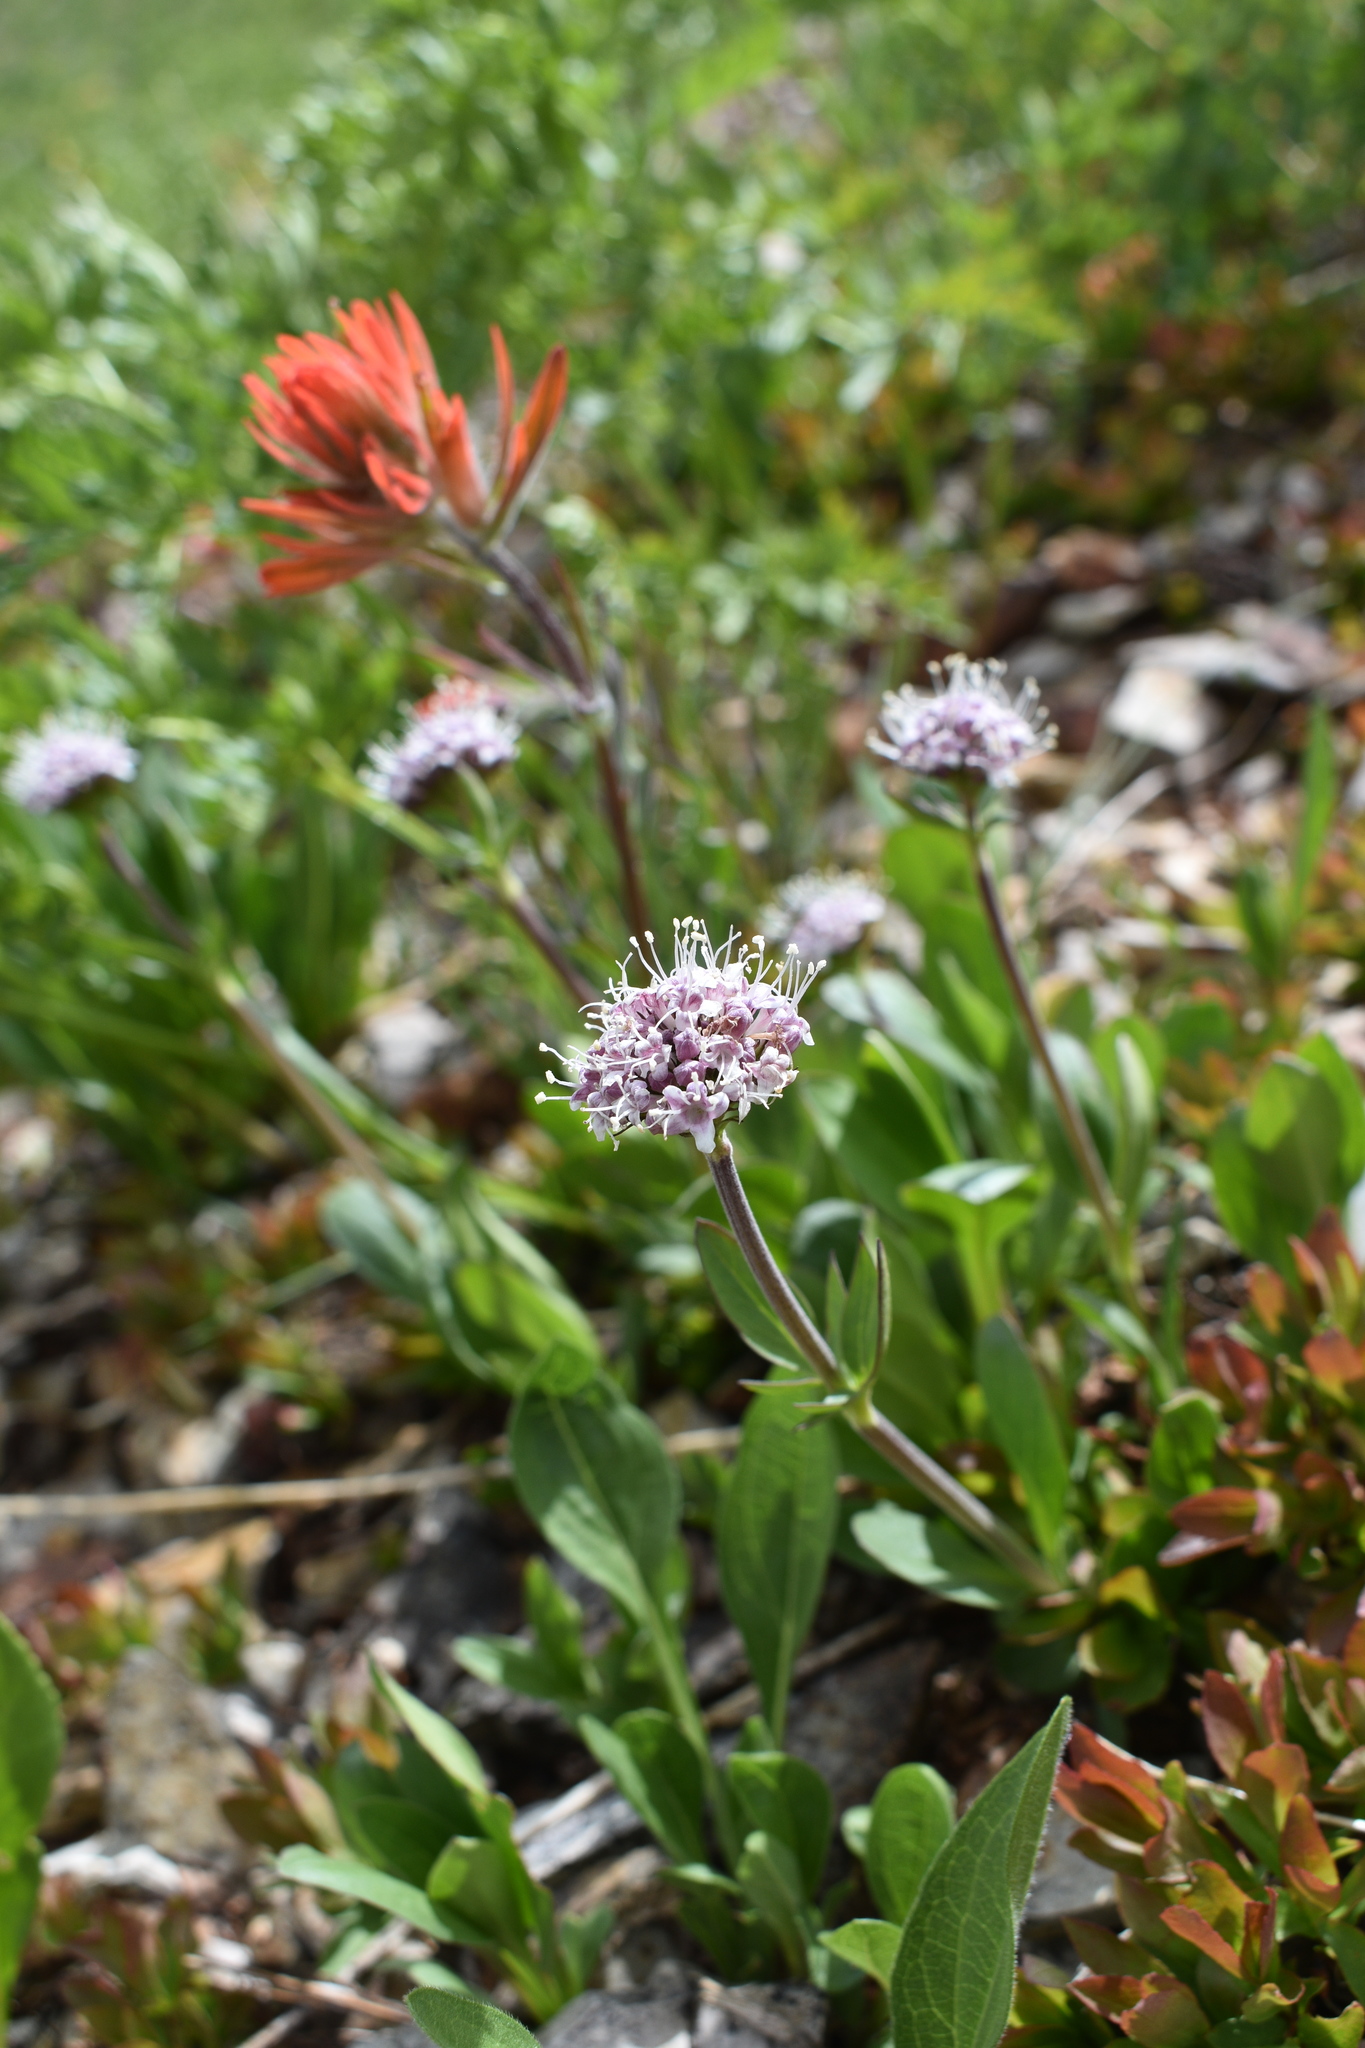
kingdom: Plantae
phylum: Tracheophyta
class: Magnoliopsida
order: Dipsacales
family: Caprifoliaceae
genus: Valeriana
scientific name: Valeriana acutiloba
